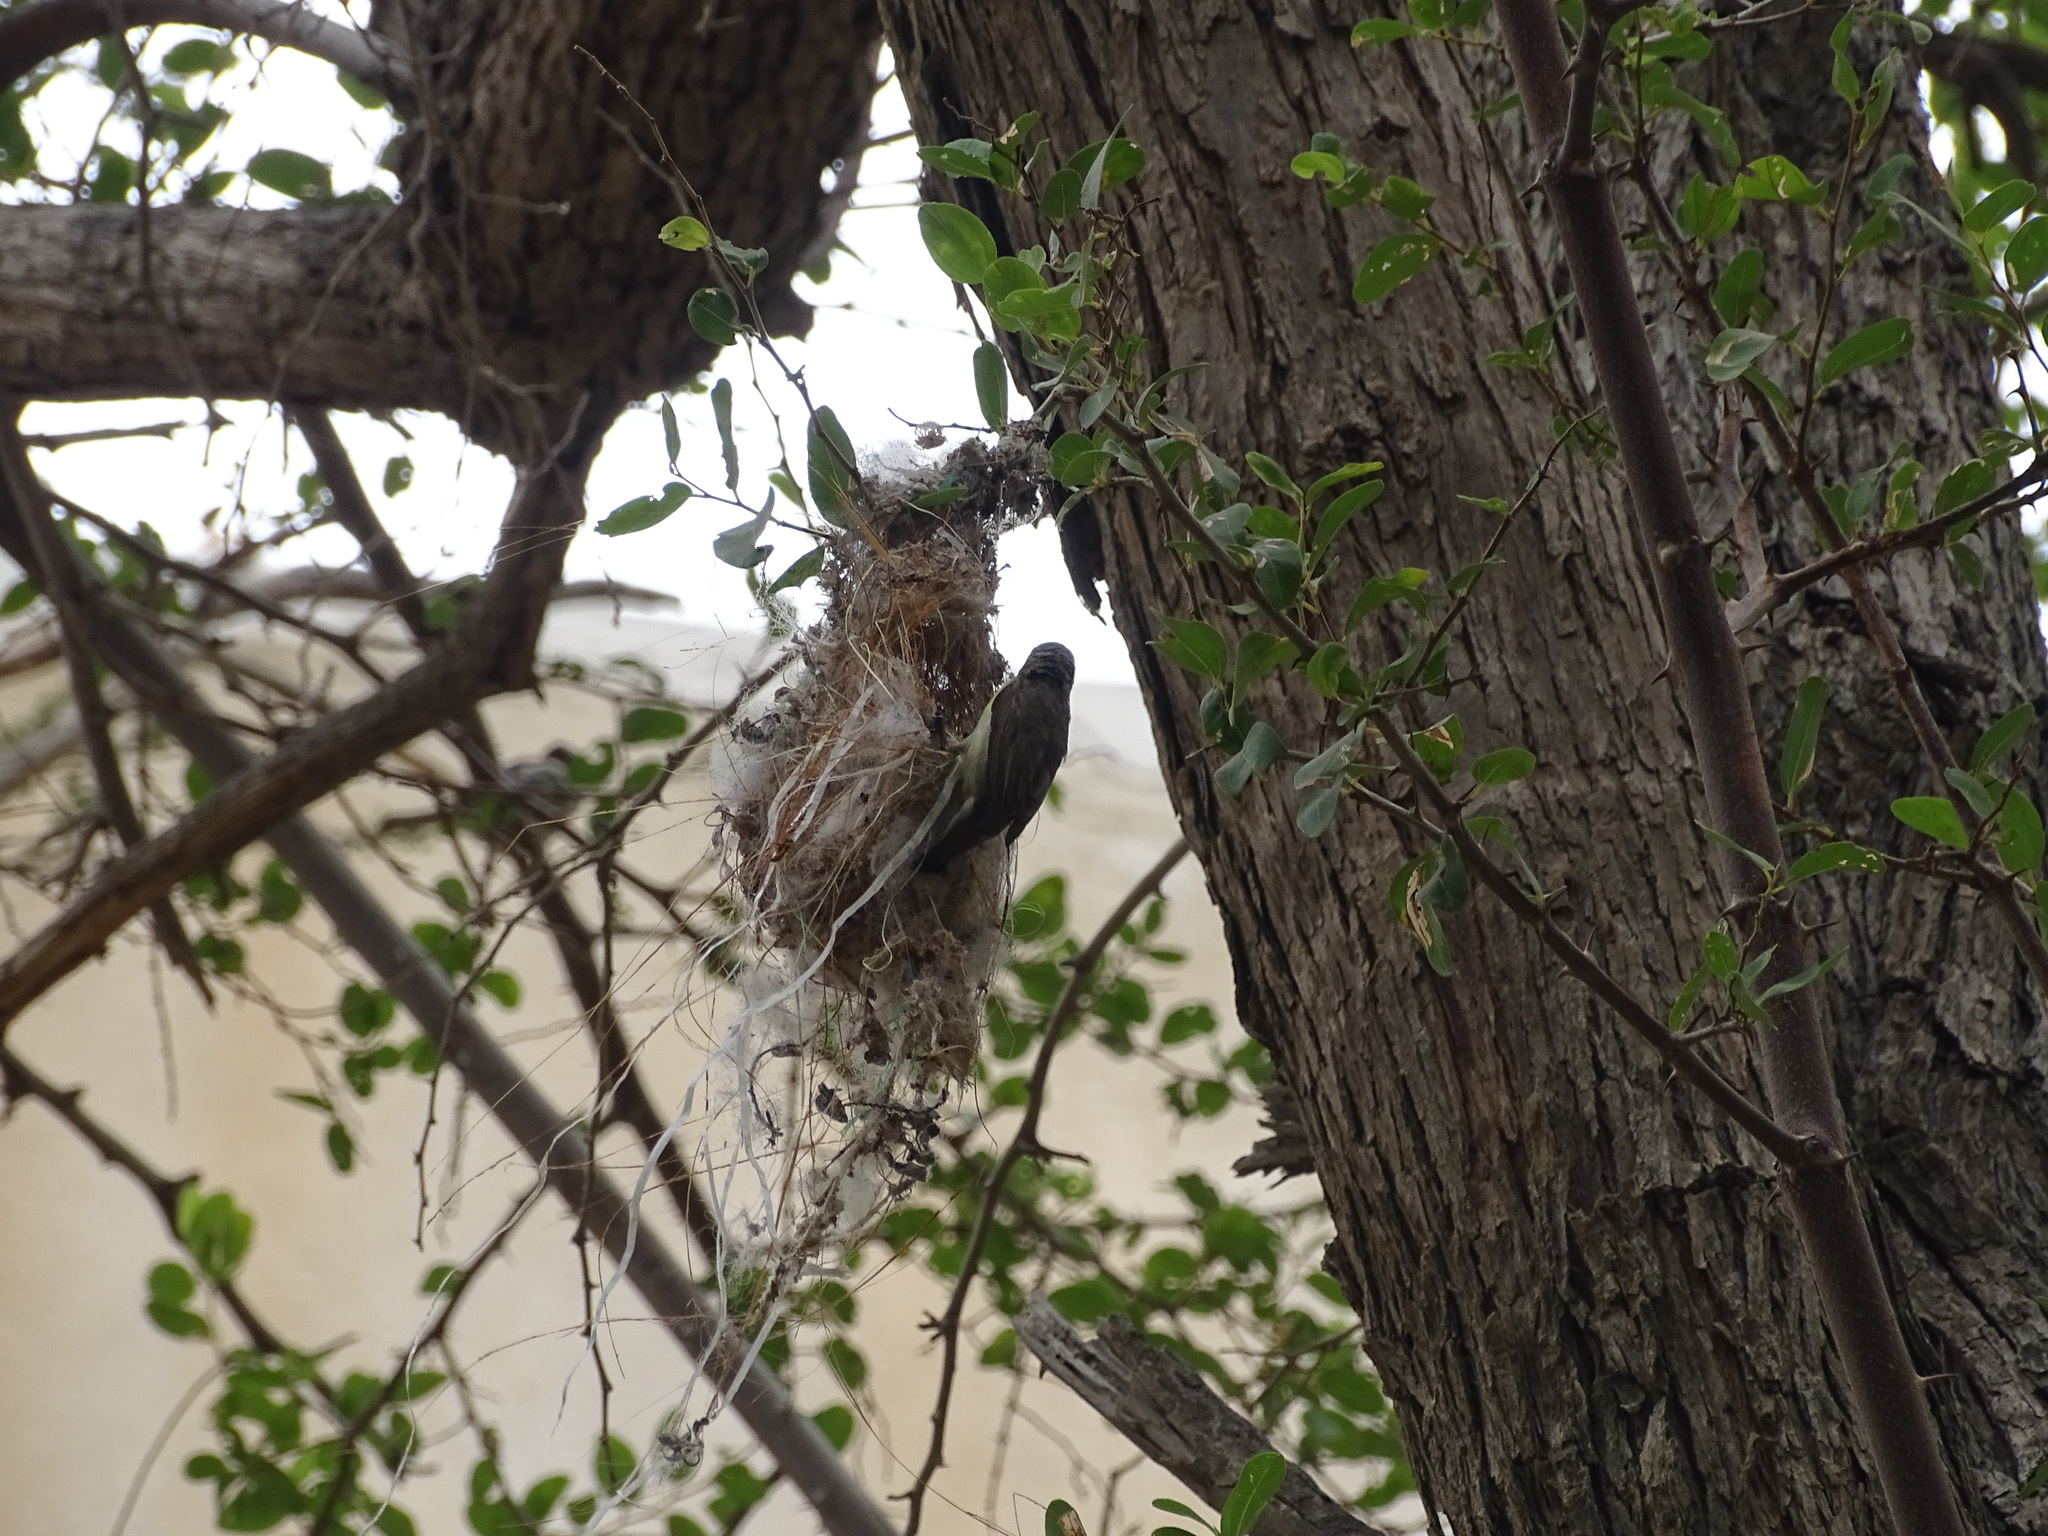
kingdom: Animalia
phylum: Chordata
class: Aves
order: Passeriformes
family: Nectariniidae
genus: Cinnyris
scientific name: Cinnyris asiaticus
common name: Purple sunbird
